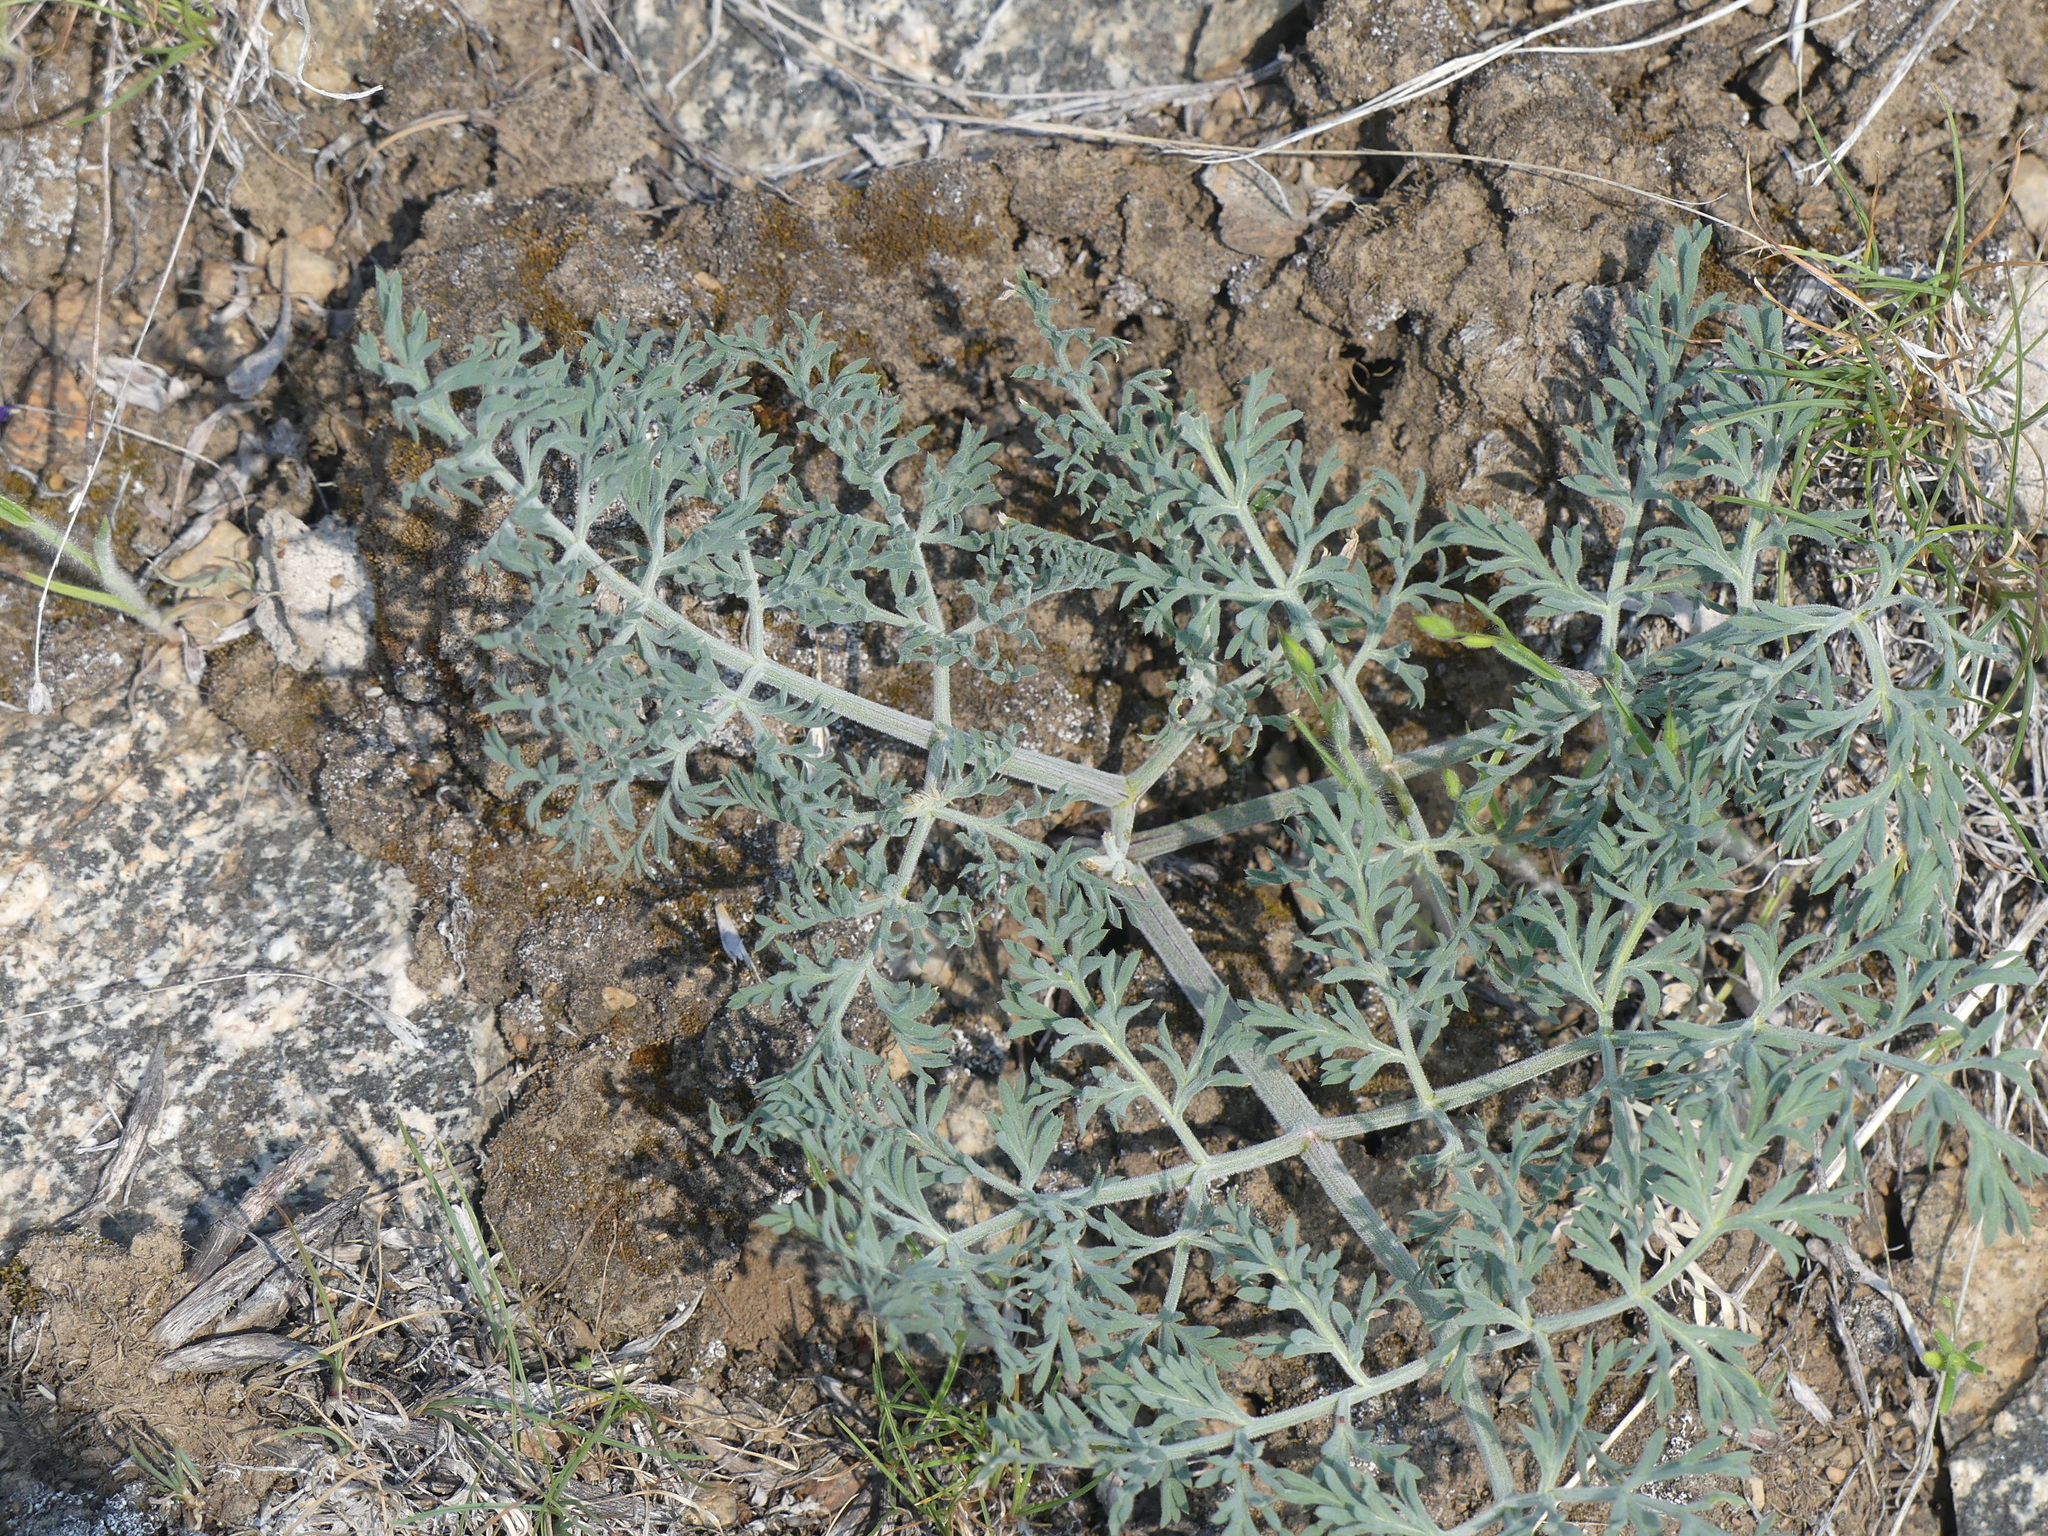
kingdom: Plantae
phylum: Tracheophyta
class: Magnoliopsida
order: Apiales
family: Apiaceae
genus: Lomatium
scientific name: Lomatium macrocarpum
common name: Big-seed biscuitroot
